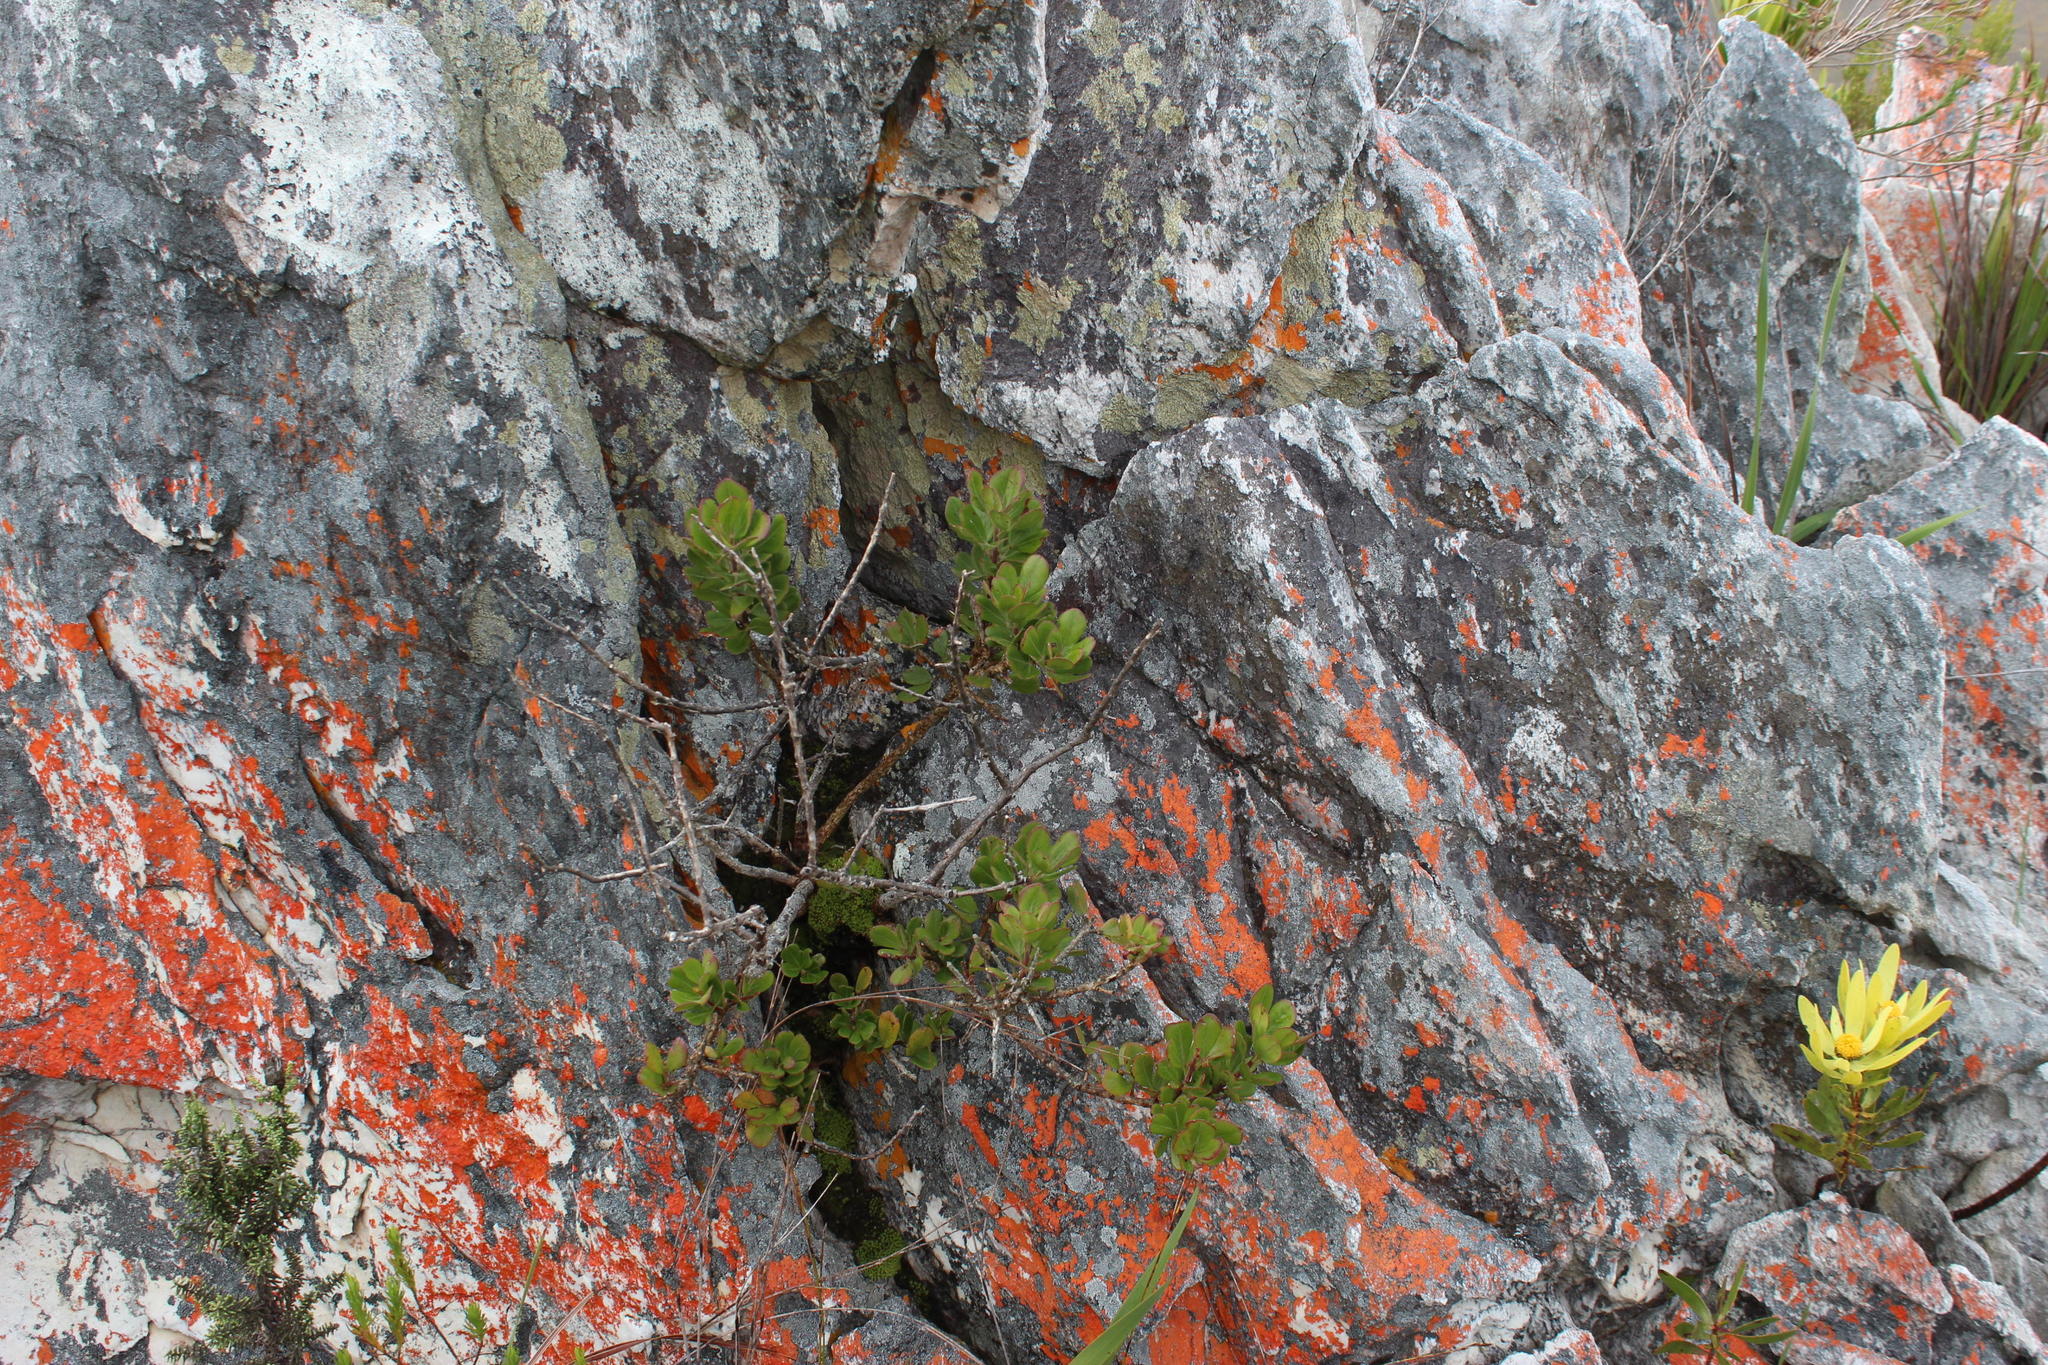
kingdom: Plantae
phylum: Tracheophyta
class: Magnoliopsida
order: Sapindales
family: Anacardiaceae
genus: Searsia
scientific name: Searsia scytophylla
